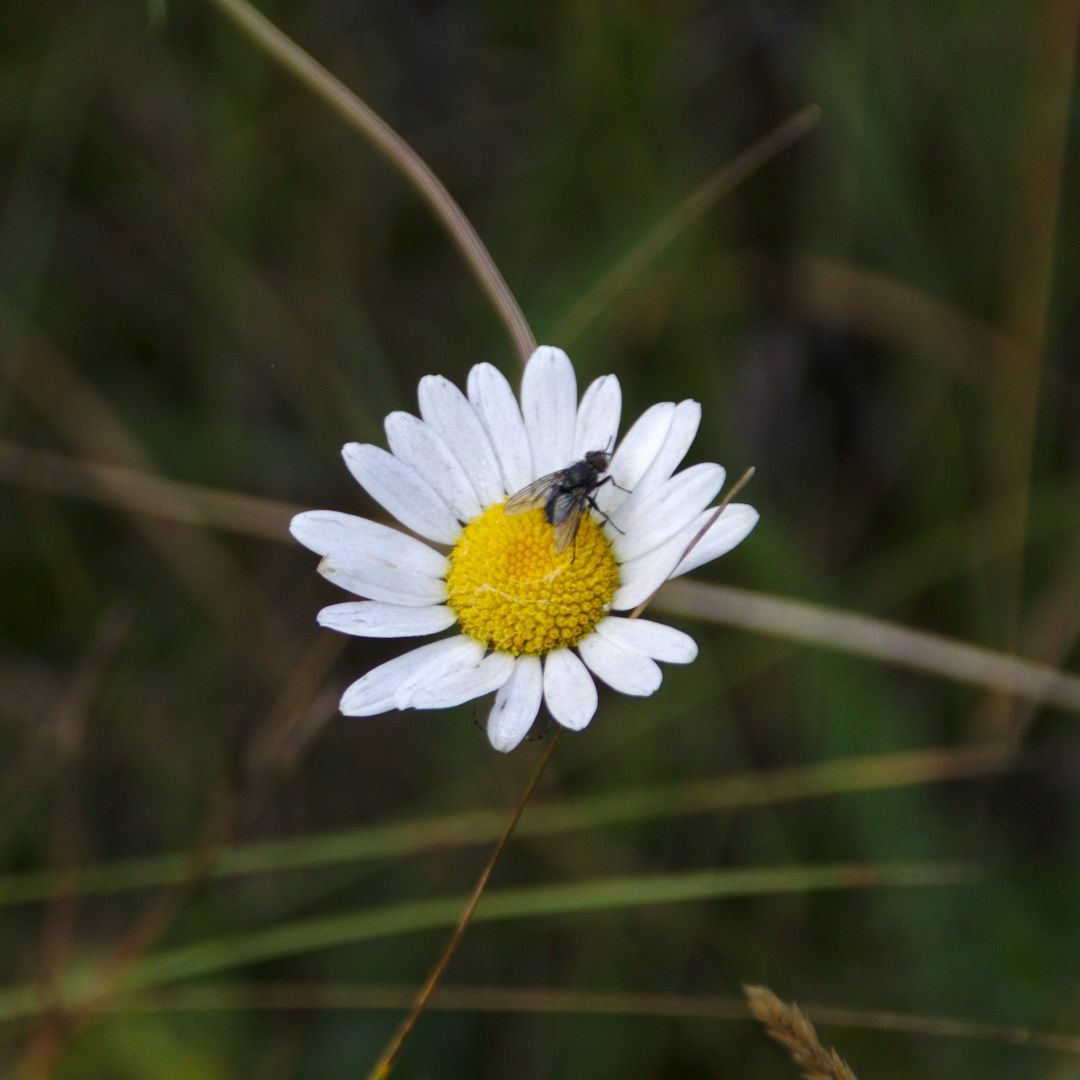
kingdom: Plantae
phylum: Tracheophyta
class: Magnoliopsida
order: Asterales
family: Asteraceae
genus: Leucanthemum
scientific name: Leucanthemum vulgare
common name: Oxeye daisy
